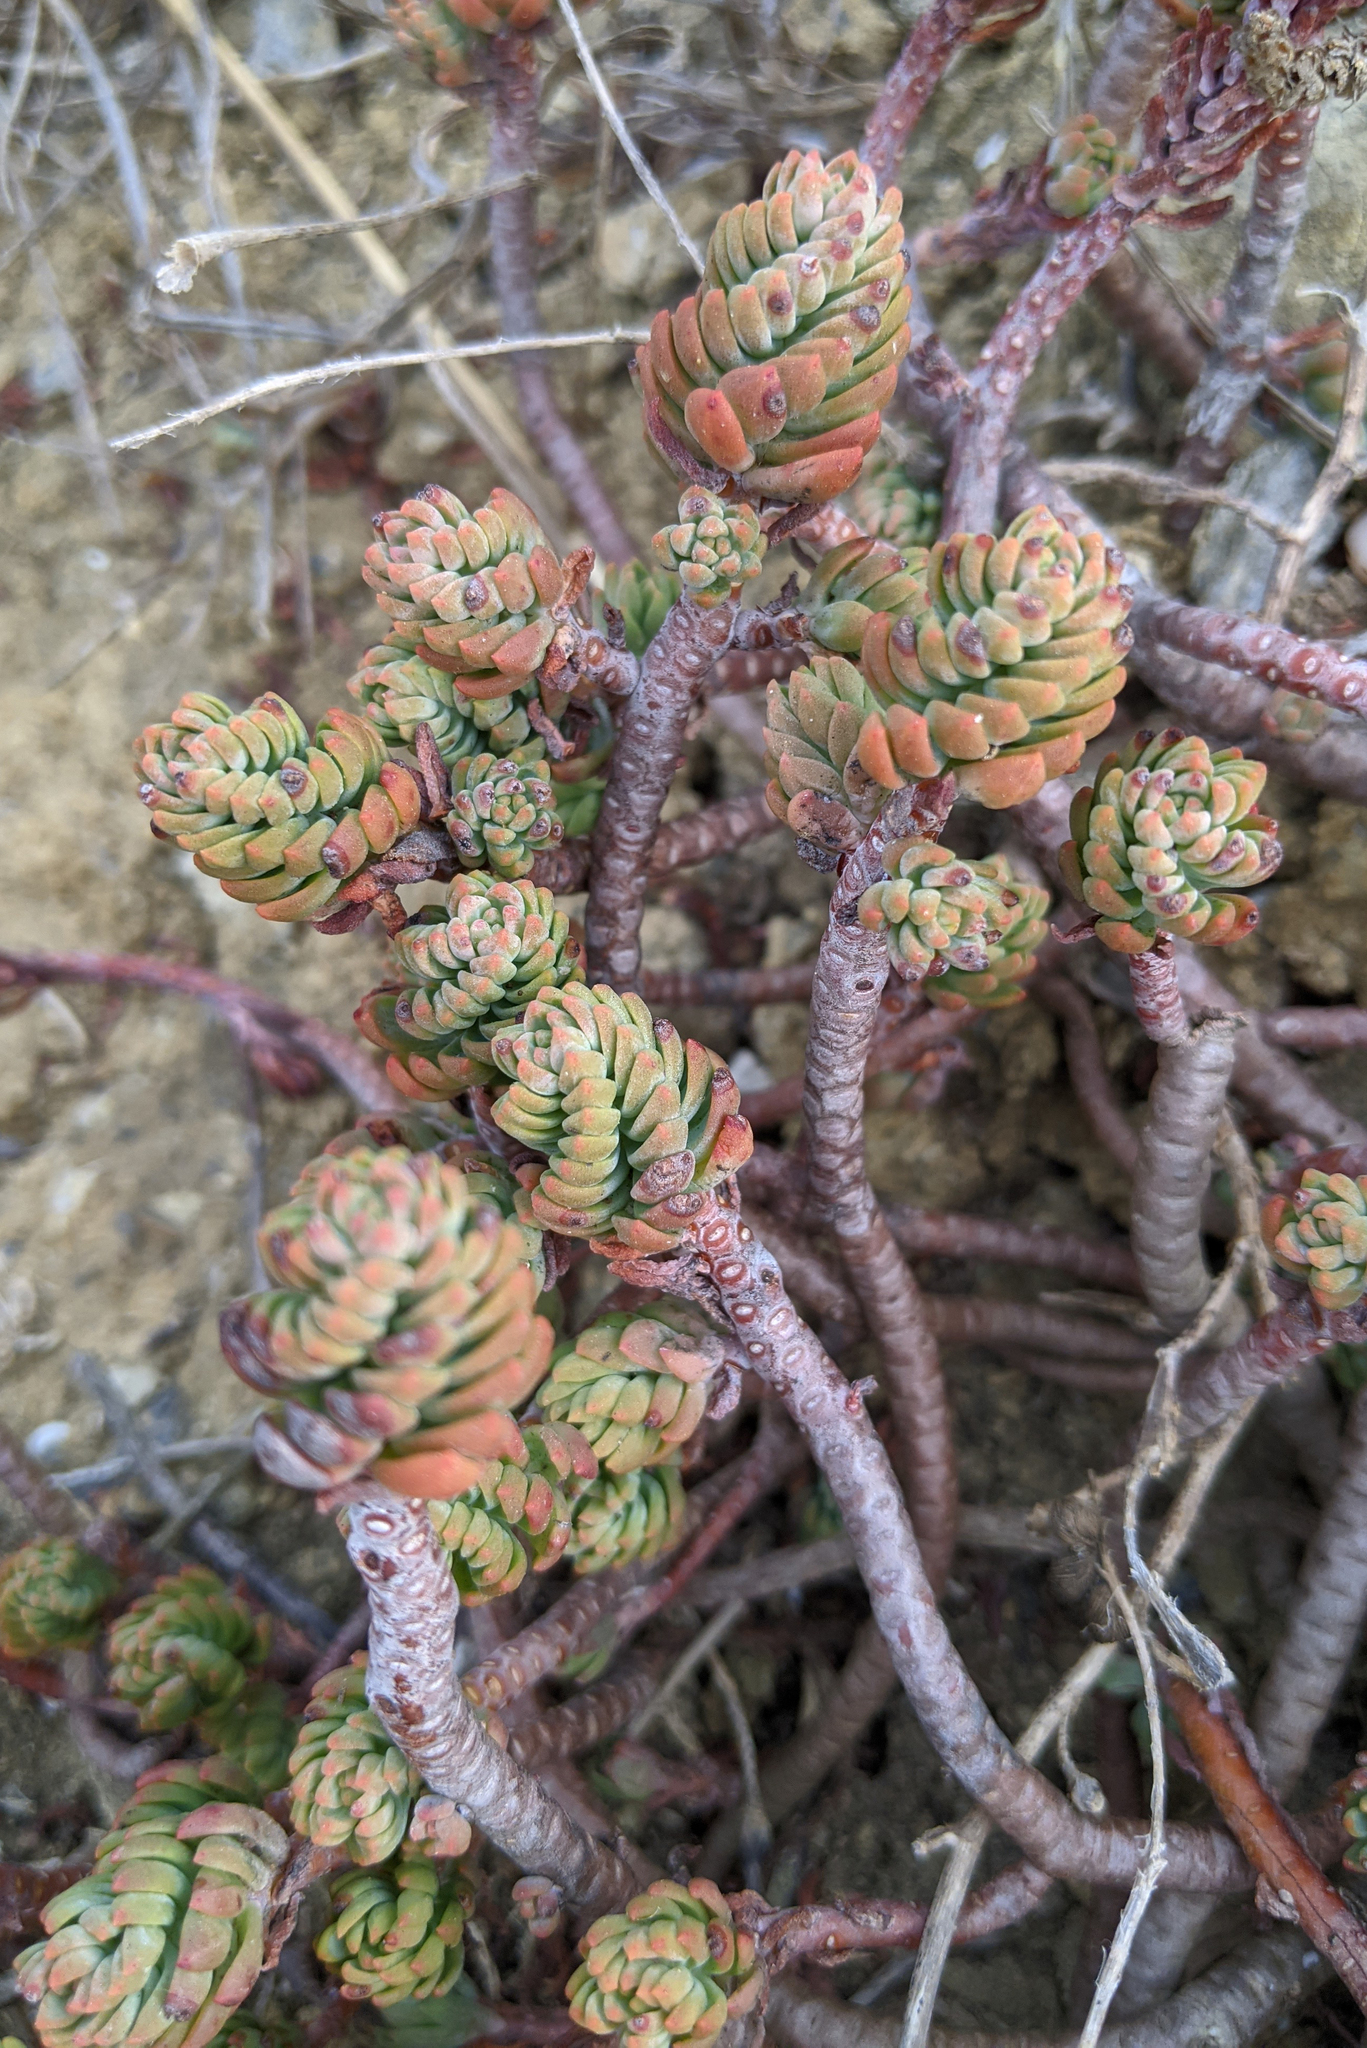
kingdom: Plantae
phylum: Tracheophyta
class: Magnoliopsida
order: Saxifragales
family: Crassulaceae
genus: Petrosedum
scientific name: Petrosedum sediforme
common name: Pale stonecrop
